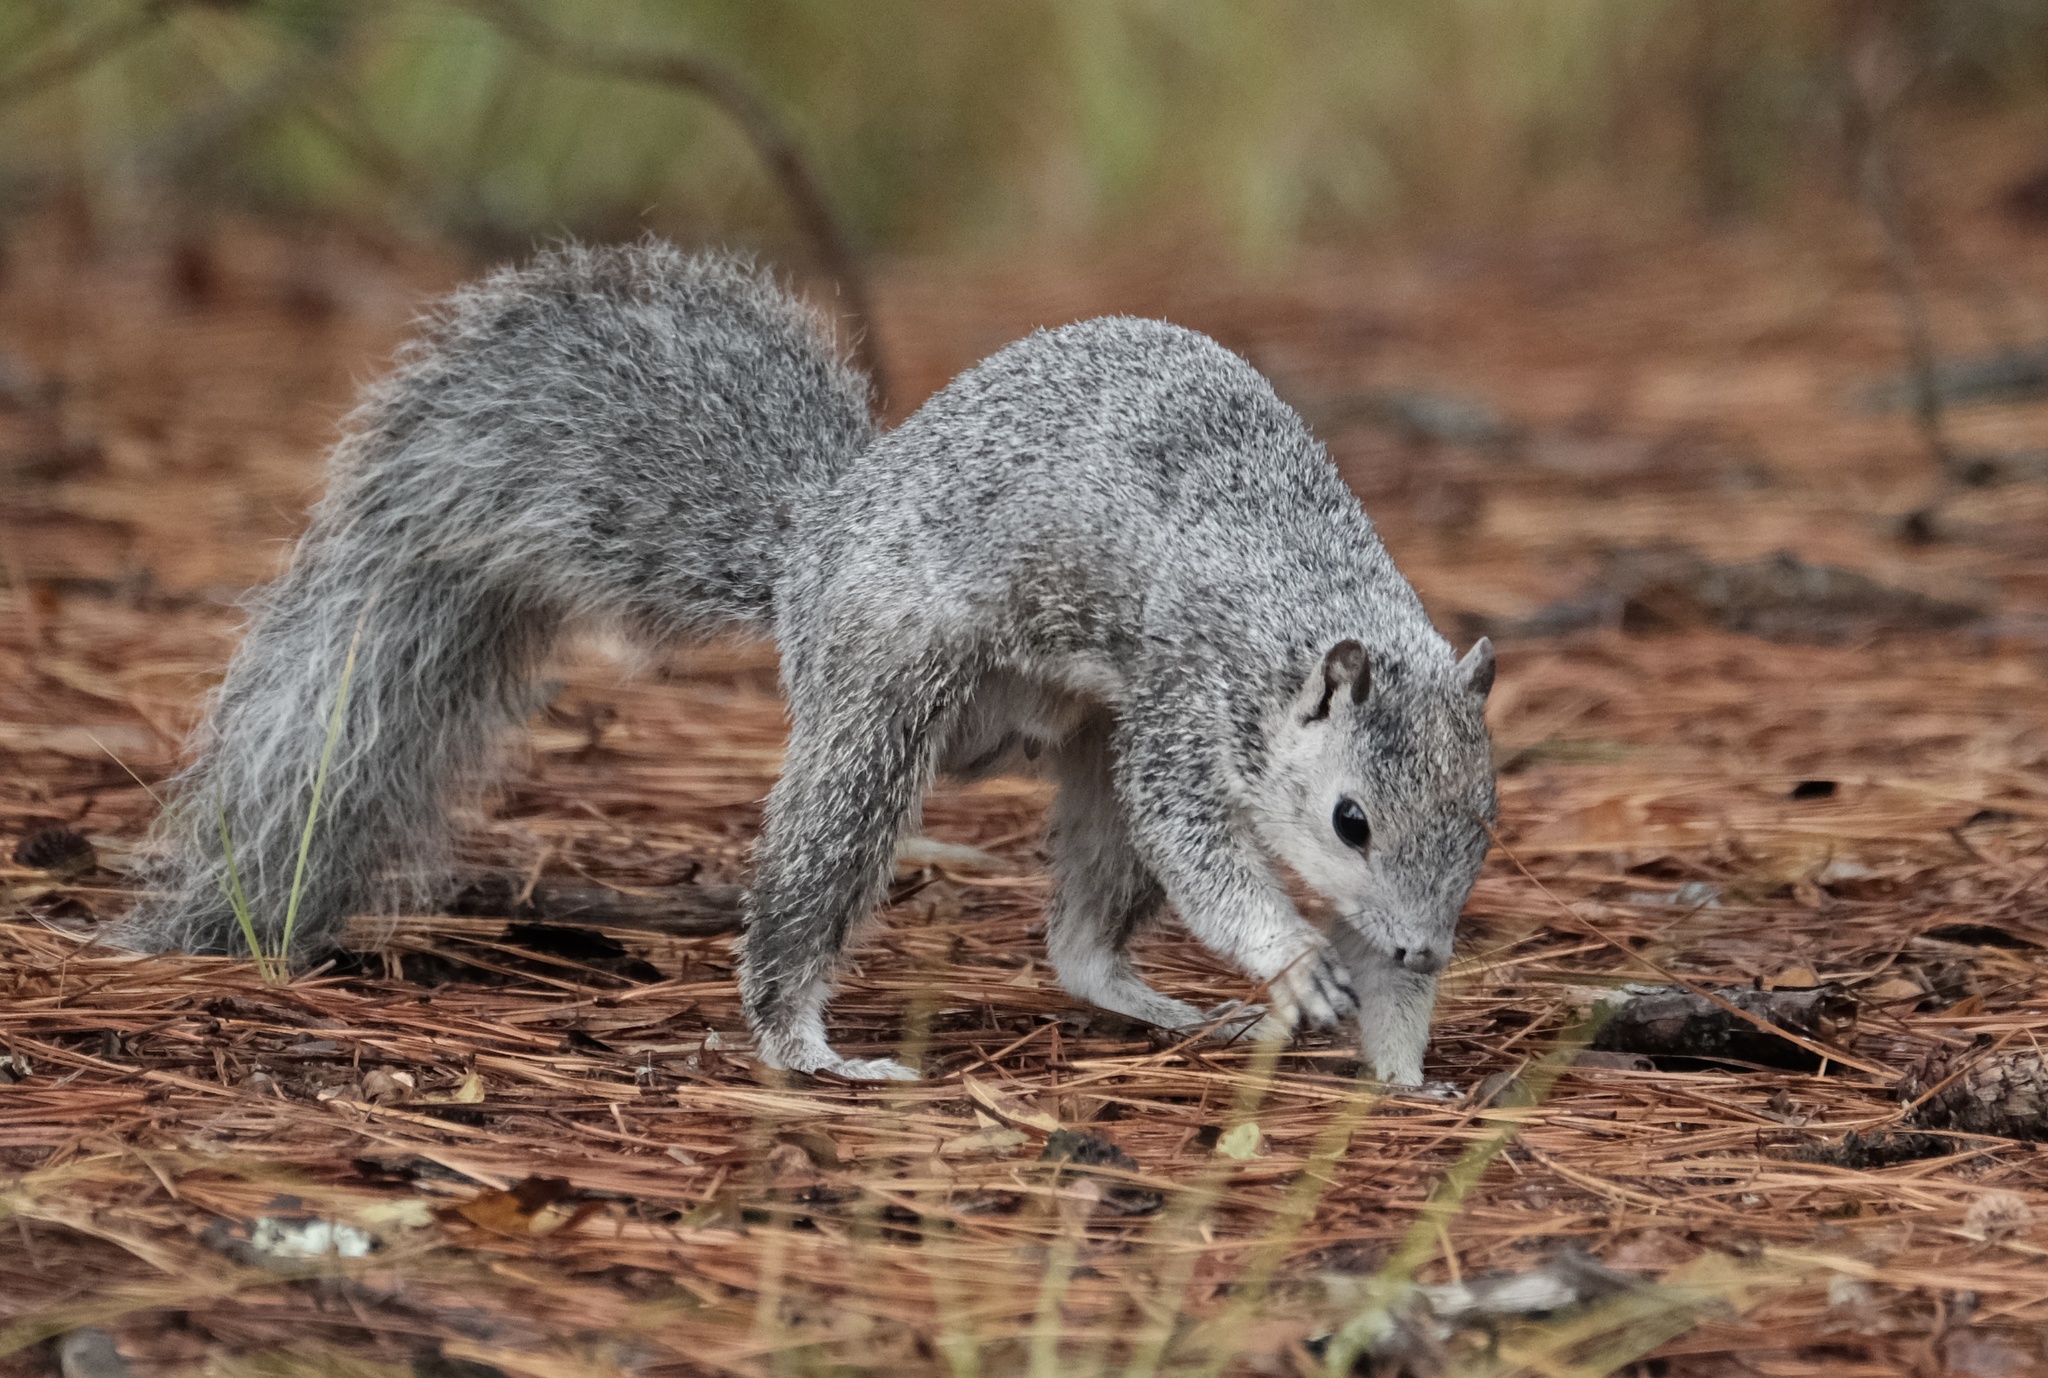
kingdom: Animalia
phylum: Chordata
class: Mammalia
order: Rodentia
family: Sciuridae
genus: Sciurus
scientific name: Sciurus niger
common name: Fox squirrel
